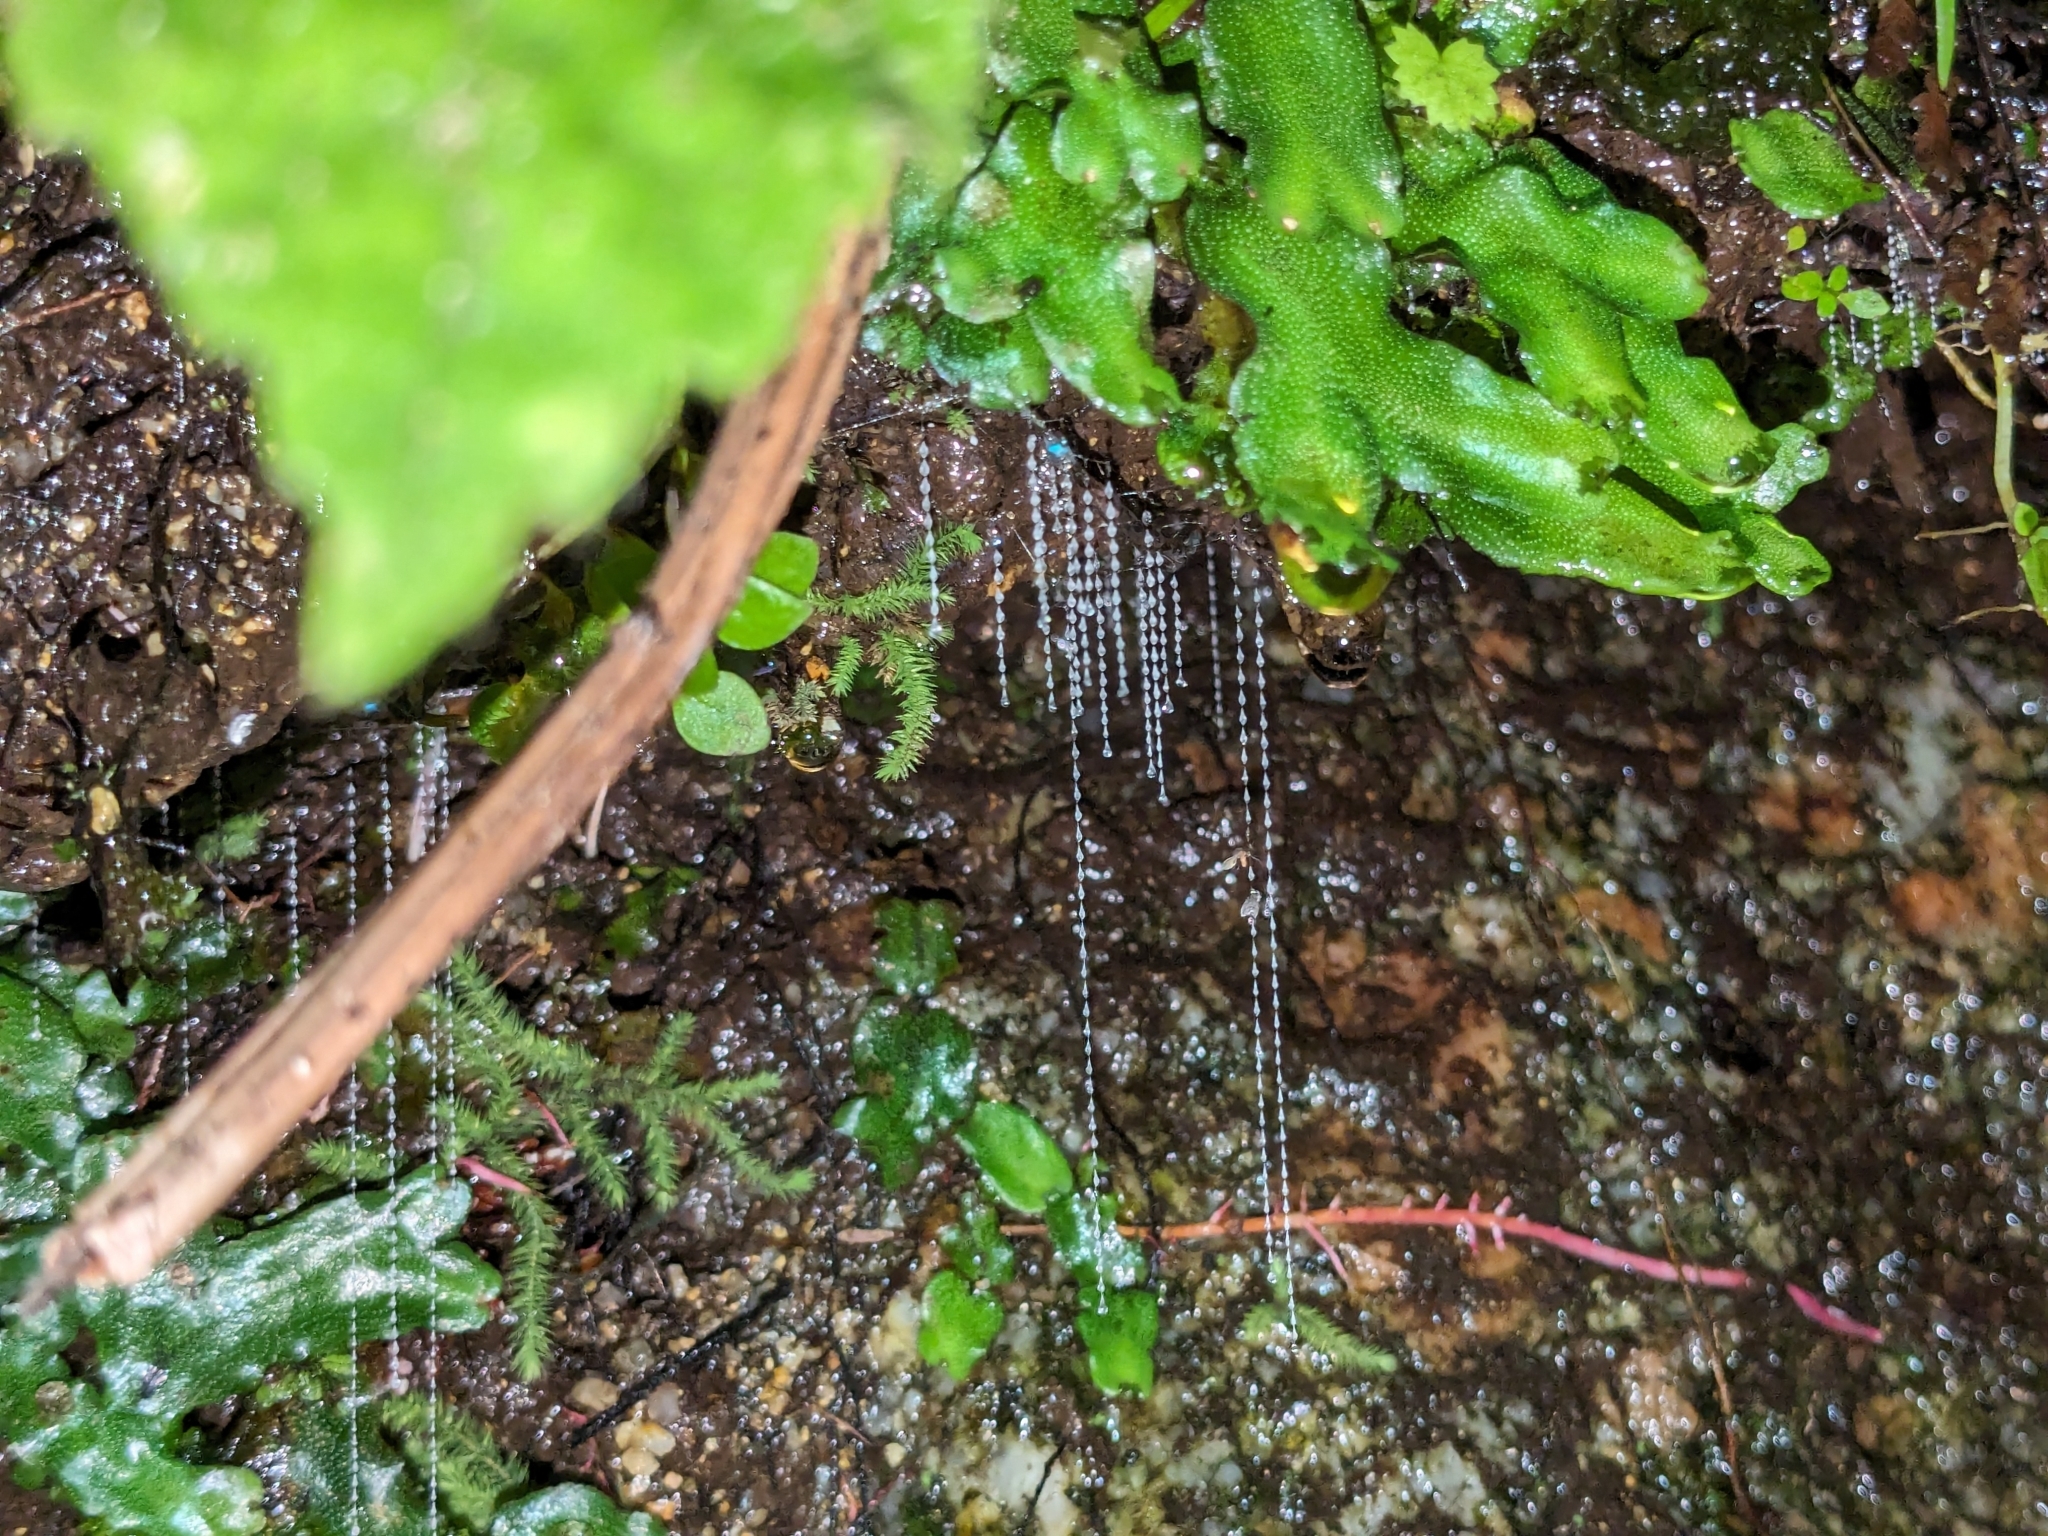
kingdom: Animalia
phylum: Arthropoda
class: Insecta
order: Diptera
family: Keroplatidae
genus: Arachnocampa
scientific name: Arachnocampa luminosa
